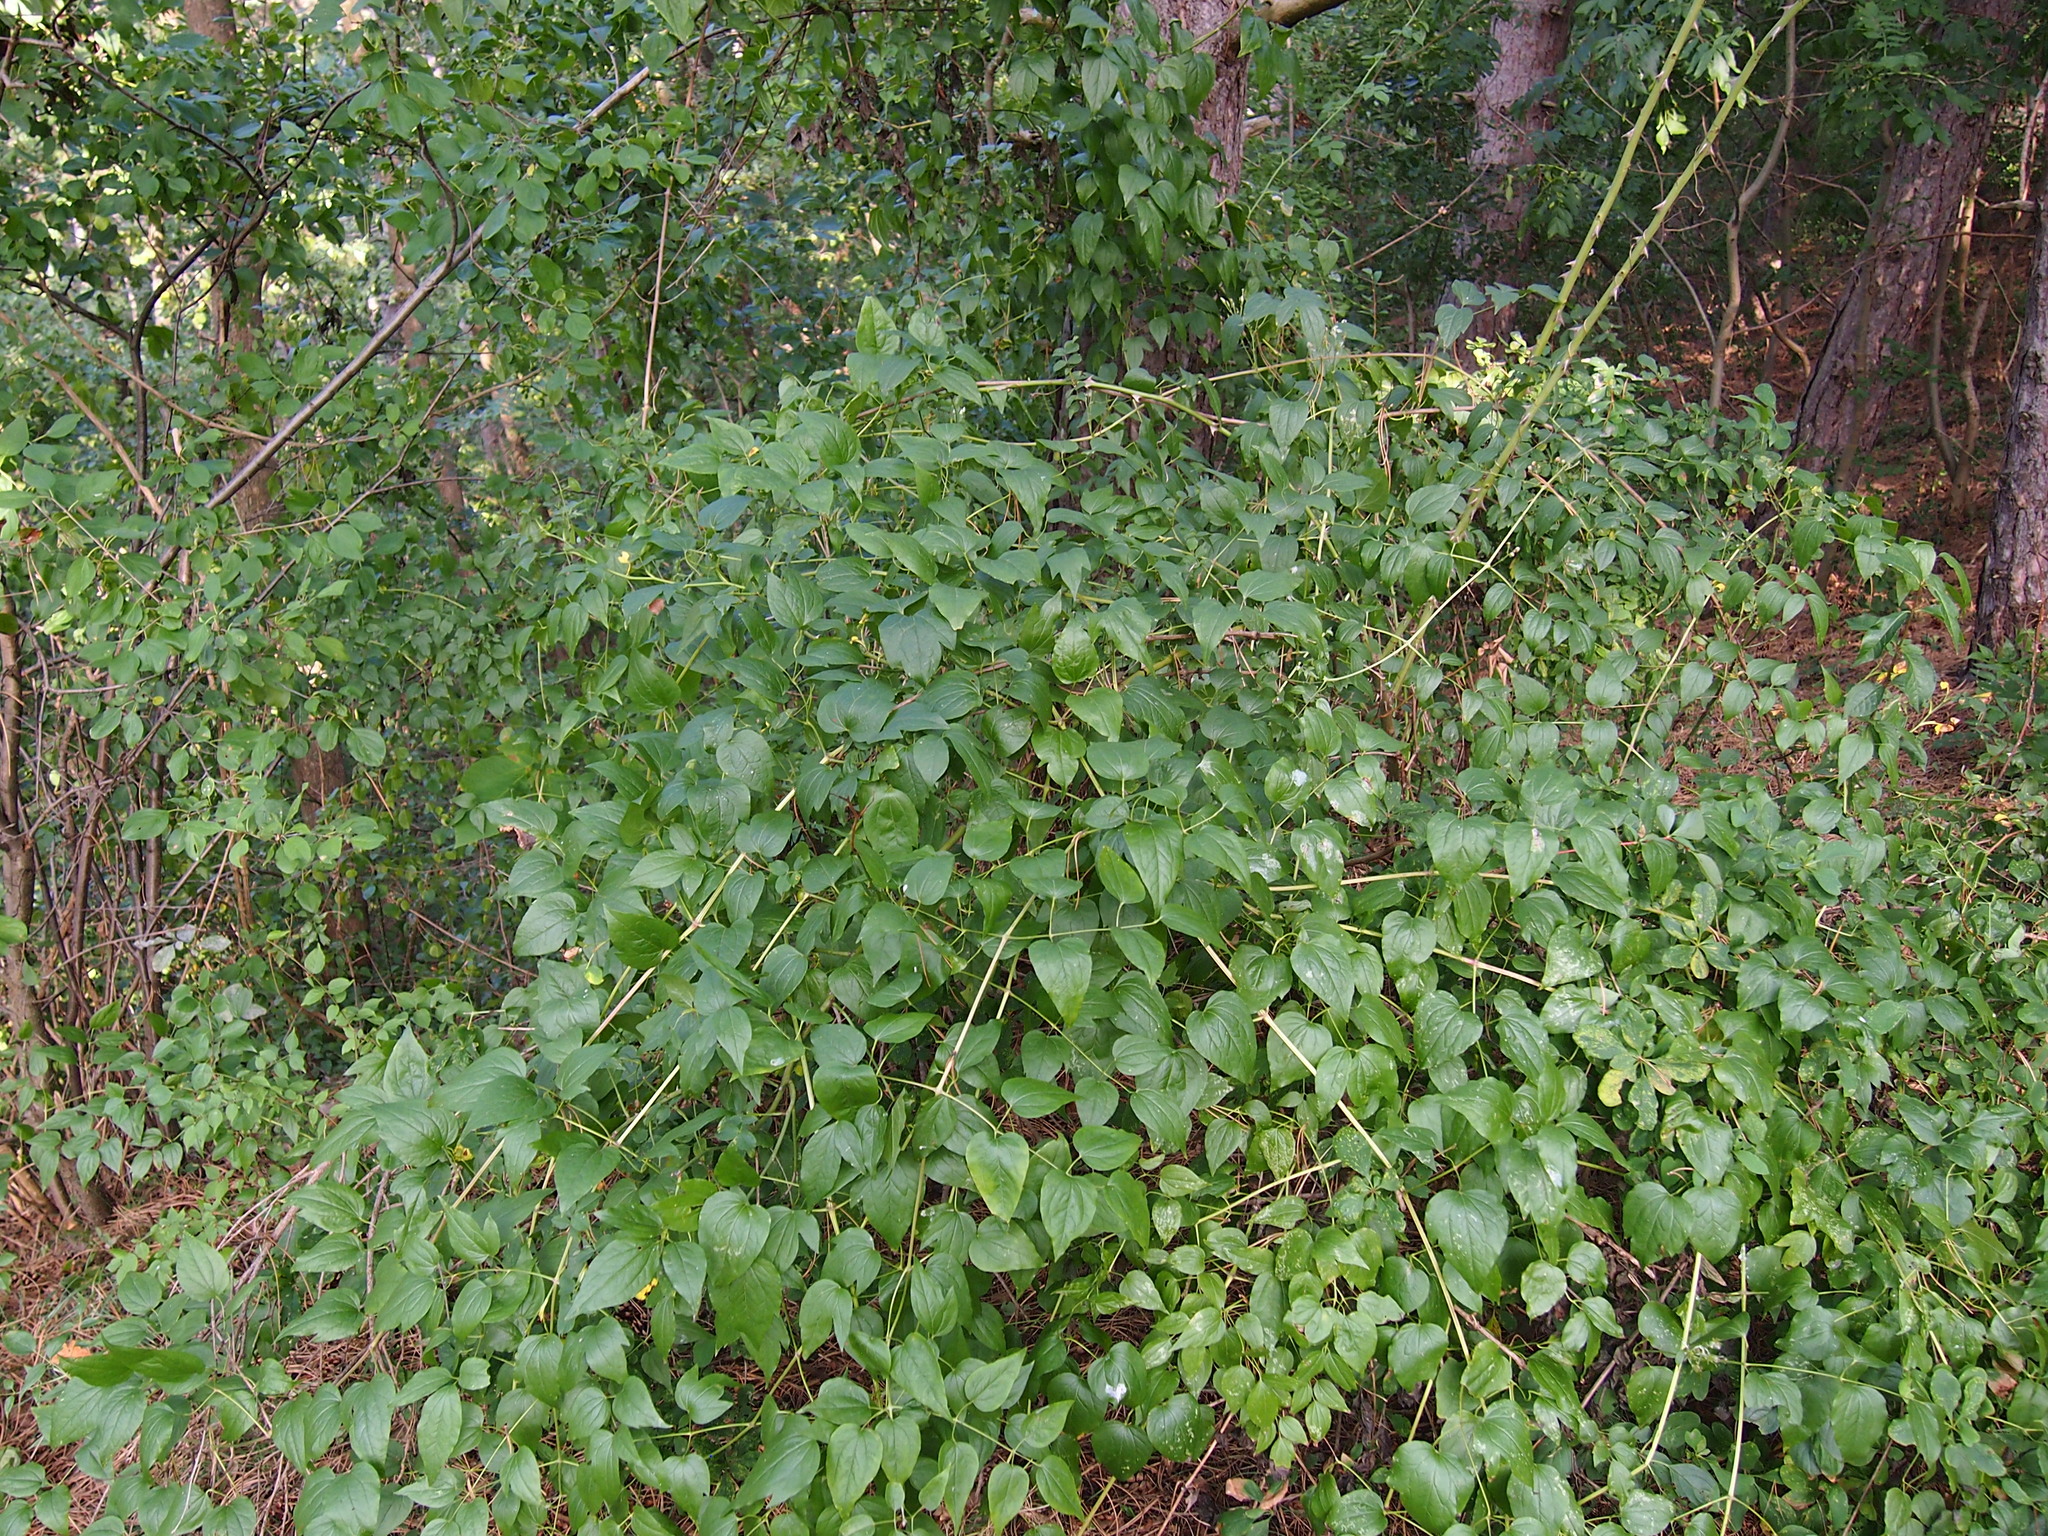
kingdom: Plantae
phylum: Tracheophyta
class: Magnoliopsida
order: Ranunculales
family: Ranunculaceae
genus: Clematis
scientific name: Clematis vitalba
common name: Evergreen clematis
